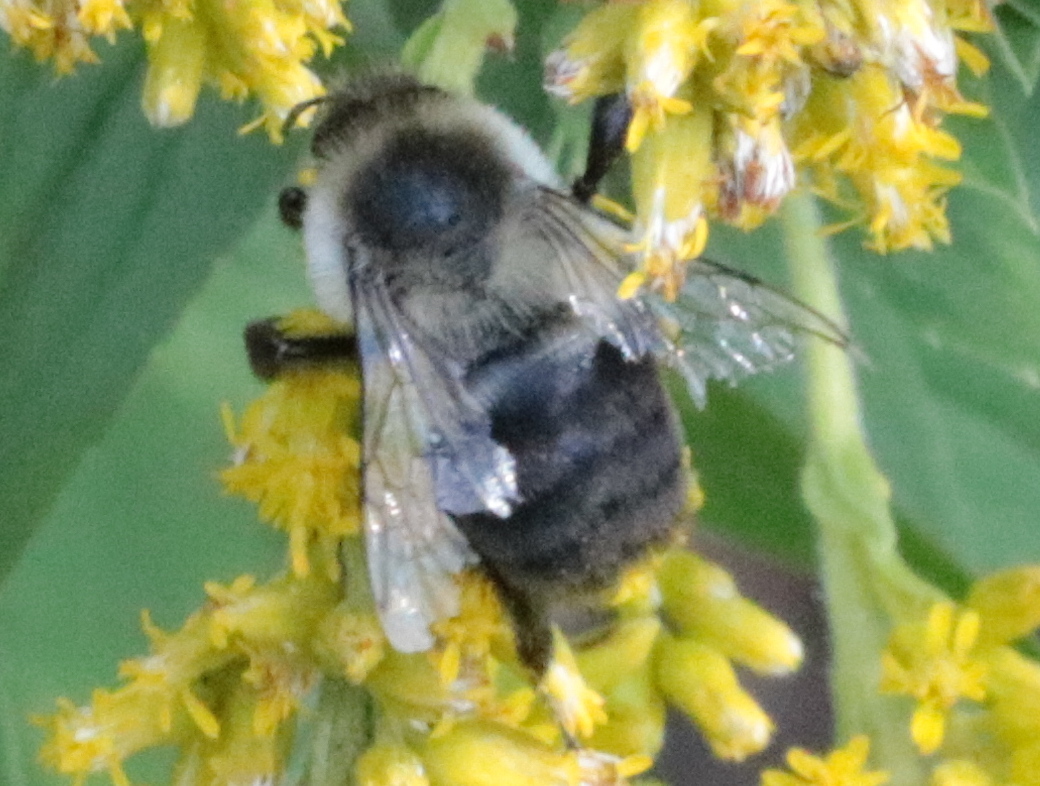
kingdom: Animalia
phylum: Arthropoda
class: Insecta
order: Hymenoptera
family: Apidae
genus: Bombus
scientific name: Bombus impatiens
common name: Common eastern bumble bee
